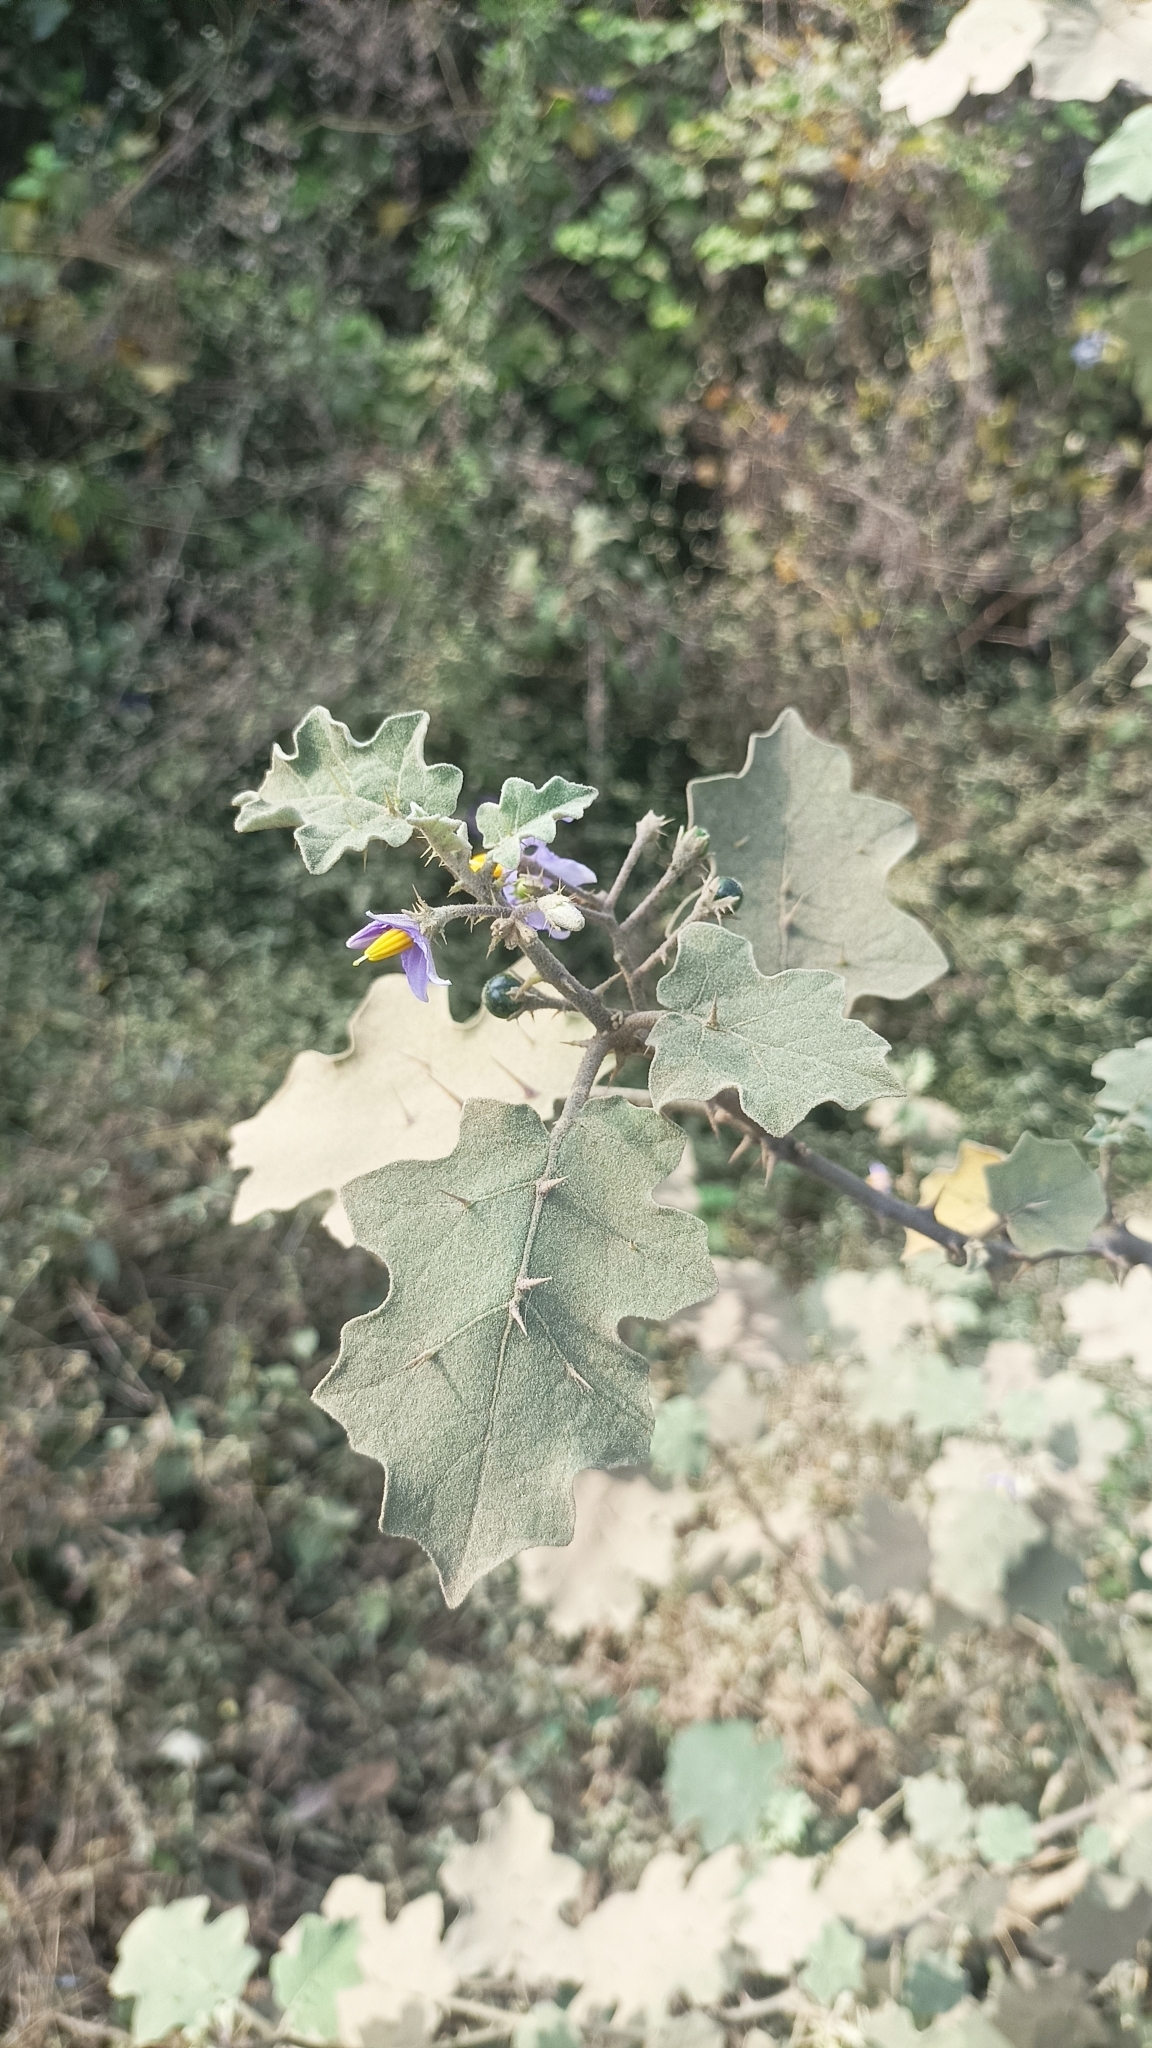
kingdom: Plantae
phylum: Tracheophyta
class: Magnoliopsida
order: Solanales
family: Solanaceae
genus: Solanum
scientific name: Solanum violaceum
